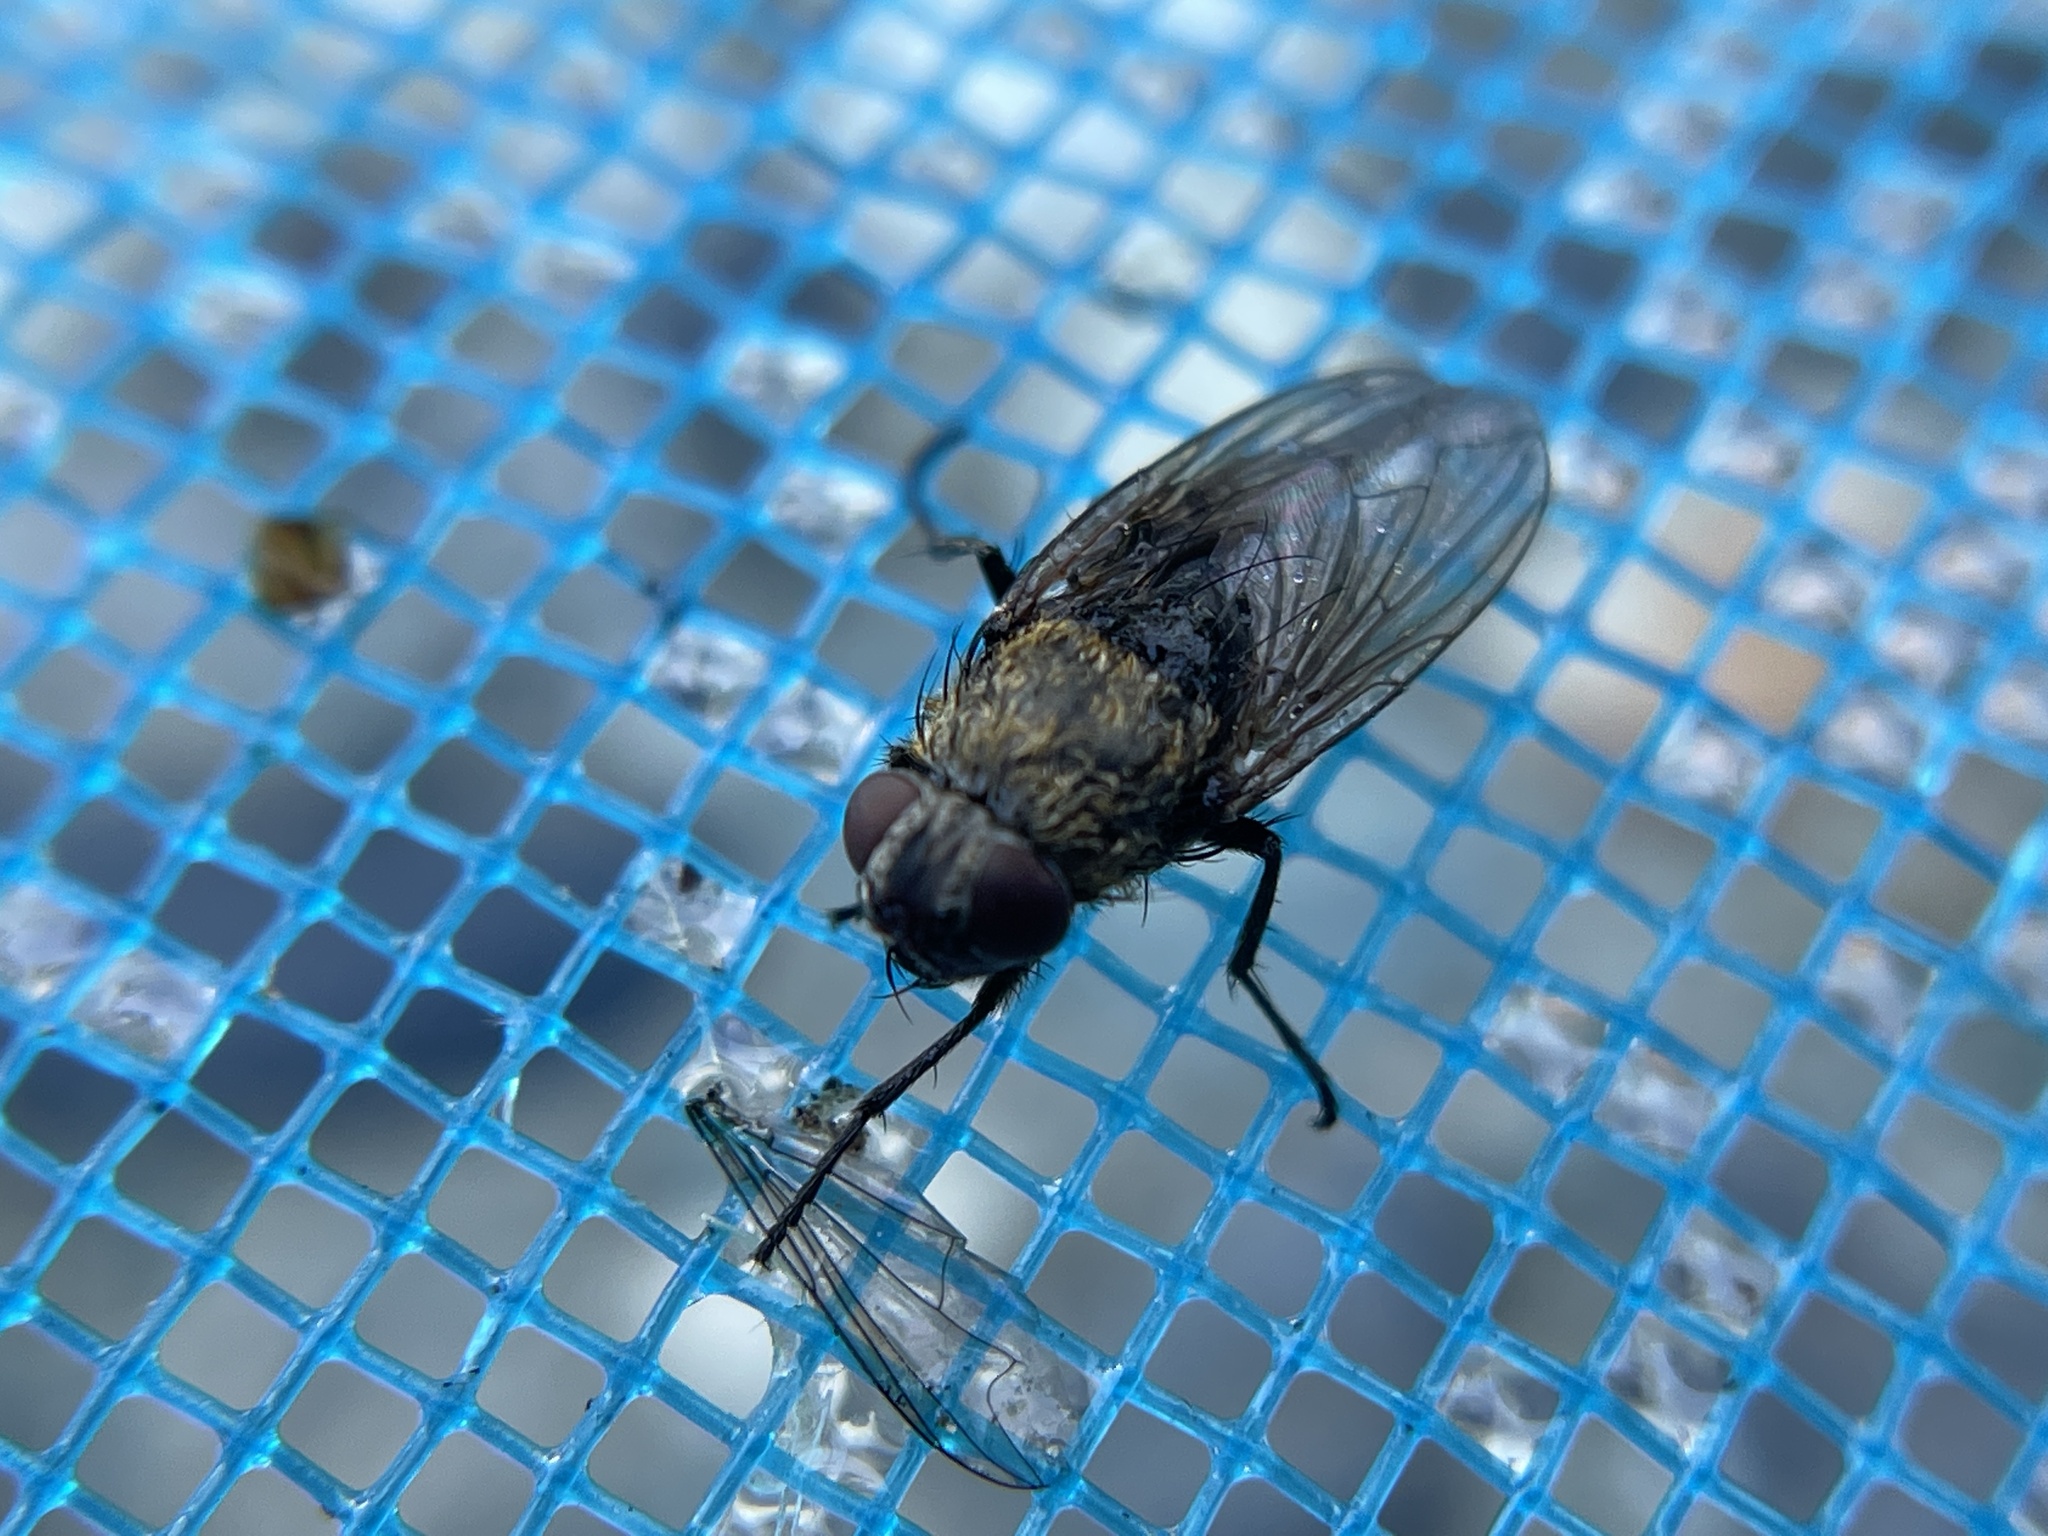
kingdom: Animalia
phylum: Arthropoda
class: Insecta
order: Diptera
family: Polleniidae
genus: Pollenia
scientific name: Pollenia
